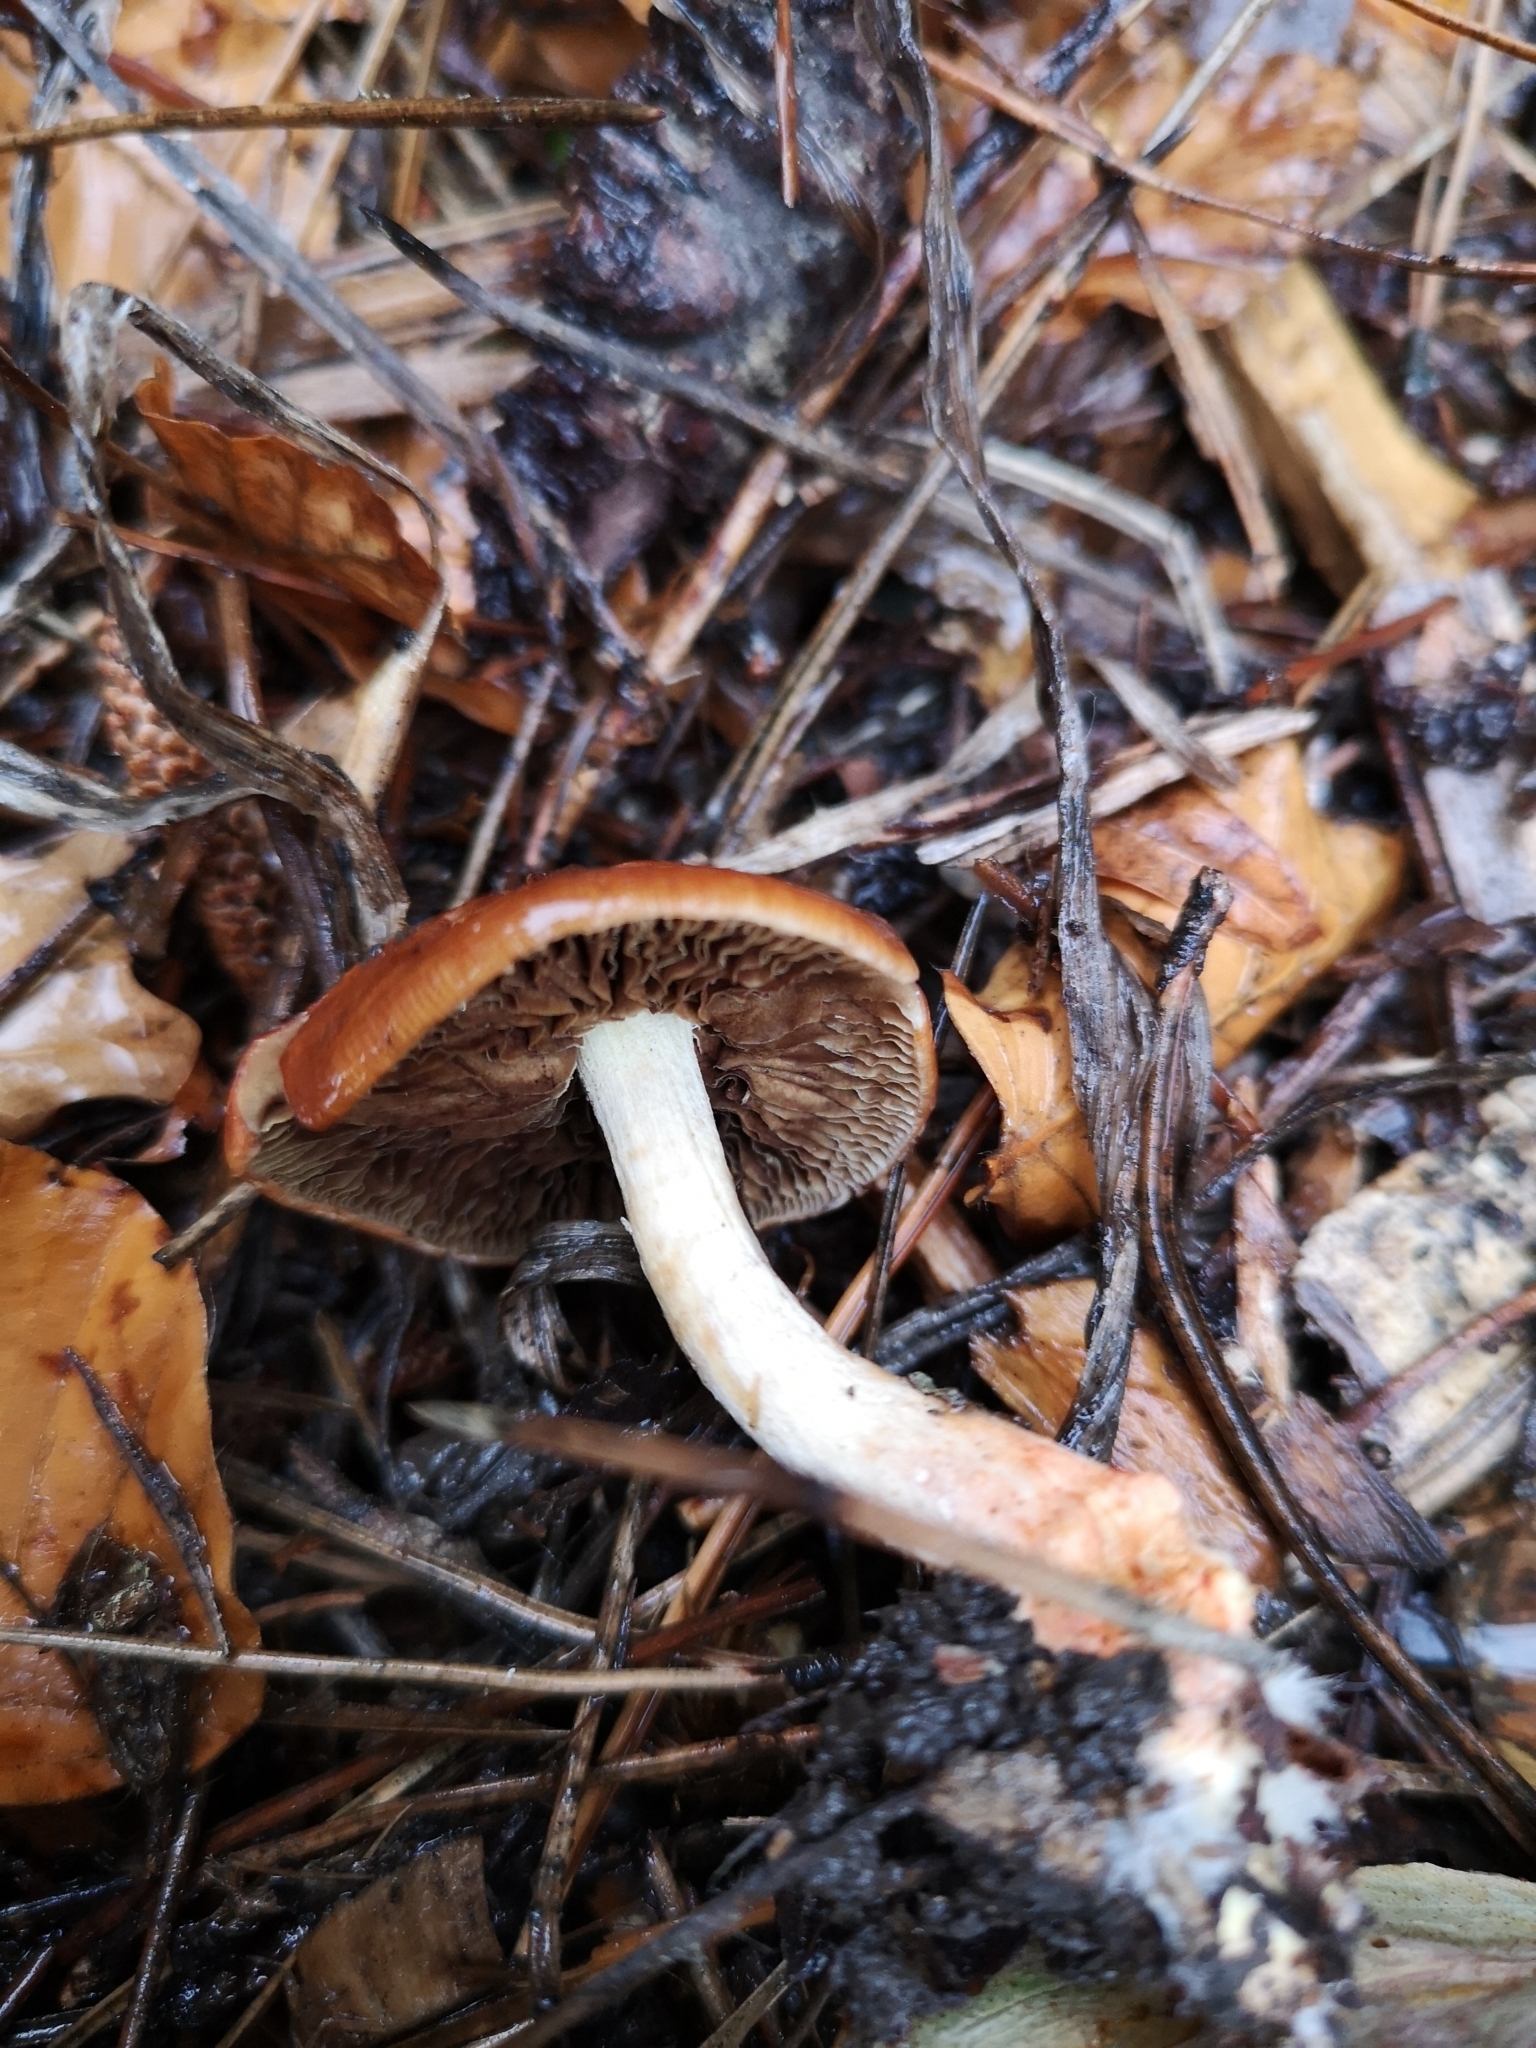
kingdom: Fungi
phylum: Basidiomycota
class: Agaricomycetes
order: Agaricales
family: Strophariaceae
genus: Leratiomyces
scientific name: Leratiomyces ceres
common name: Redlead roundhead
